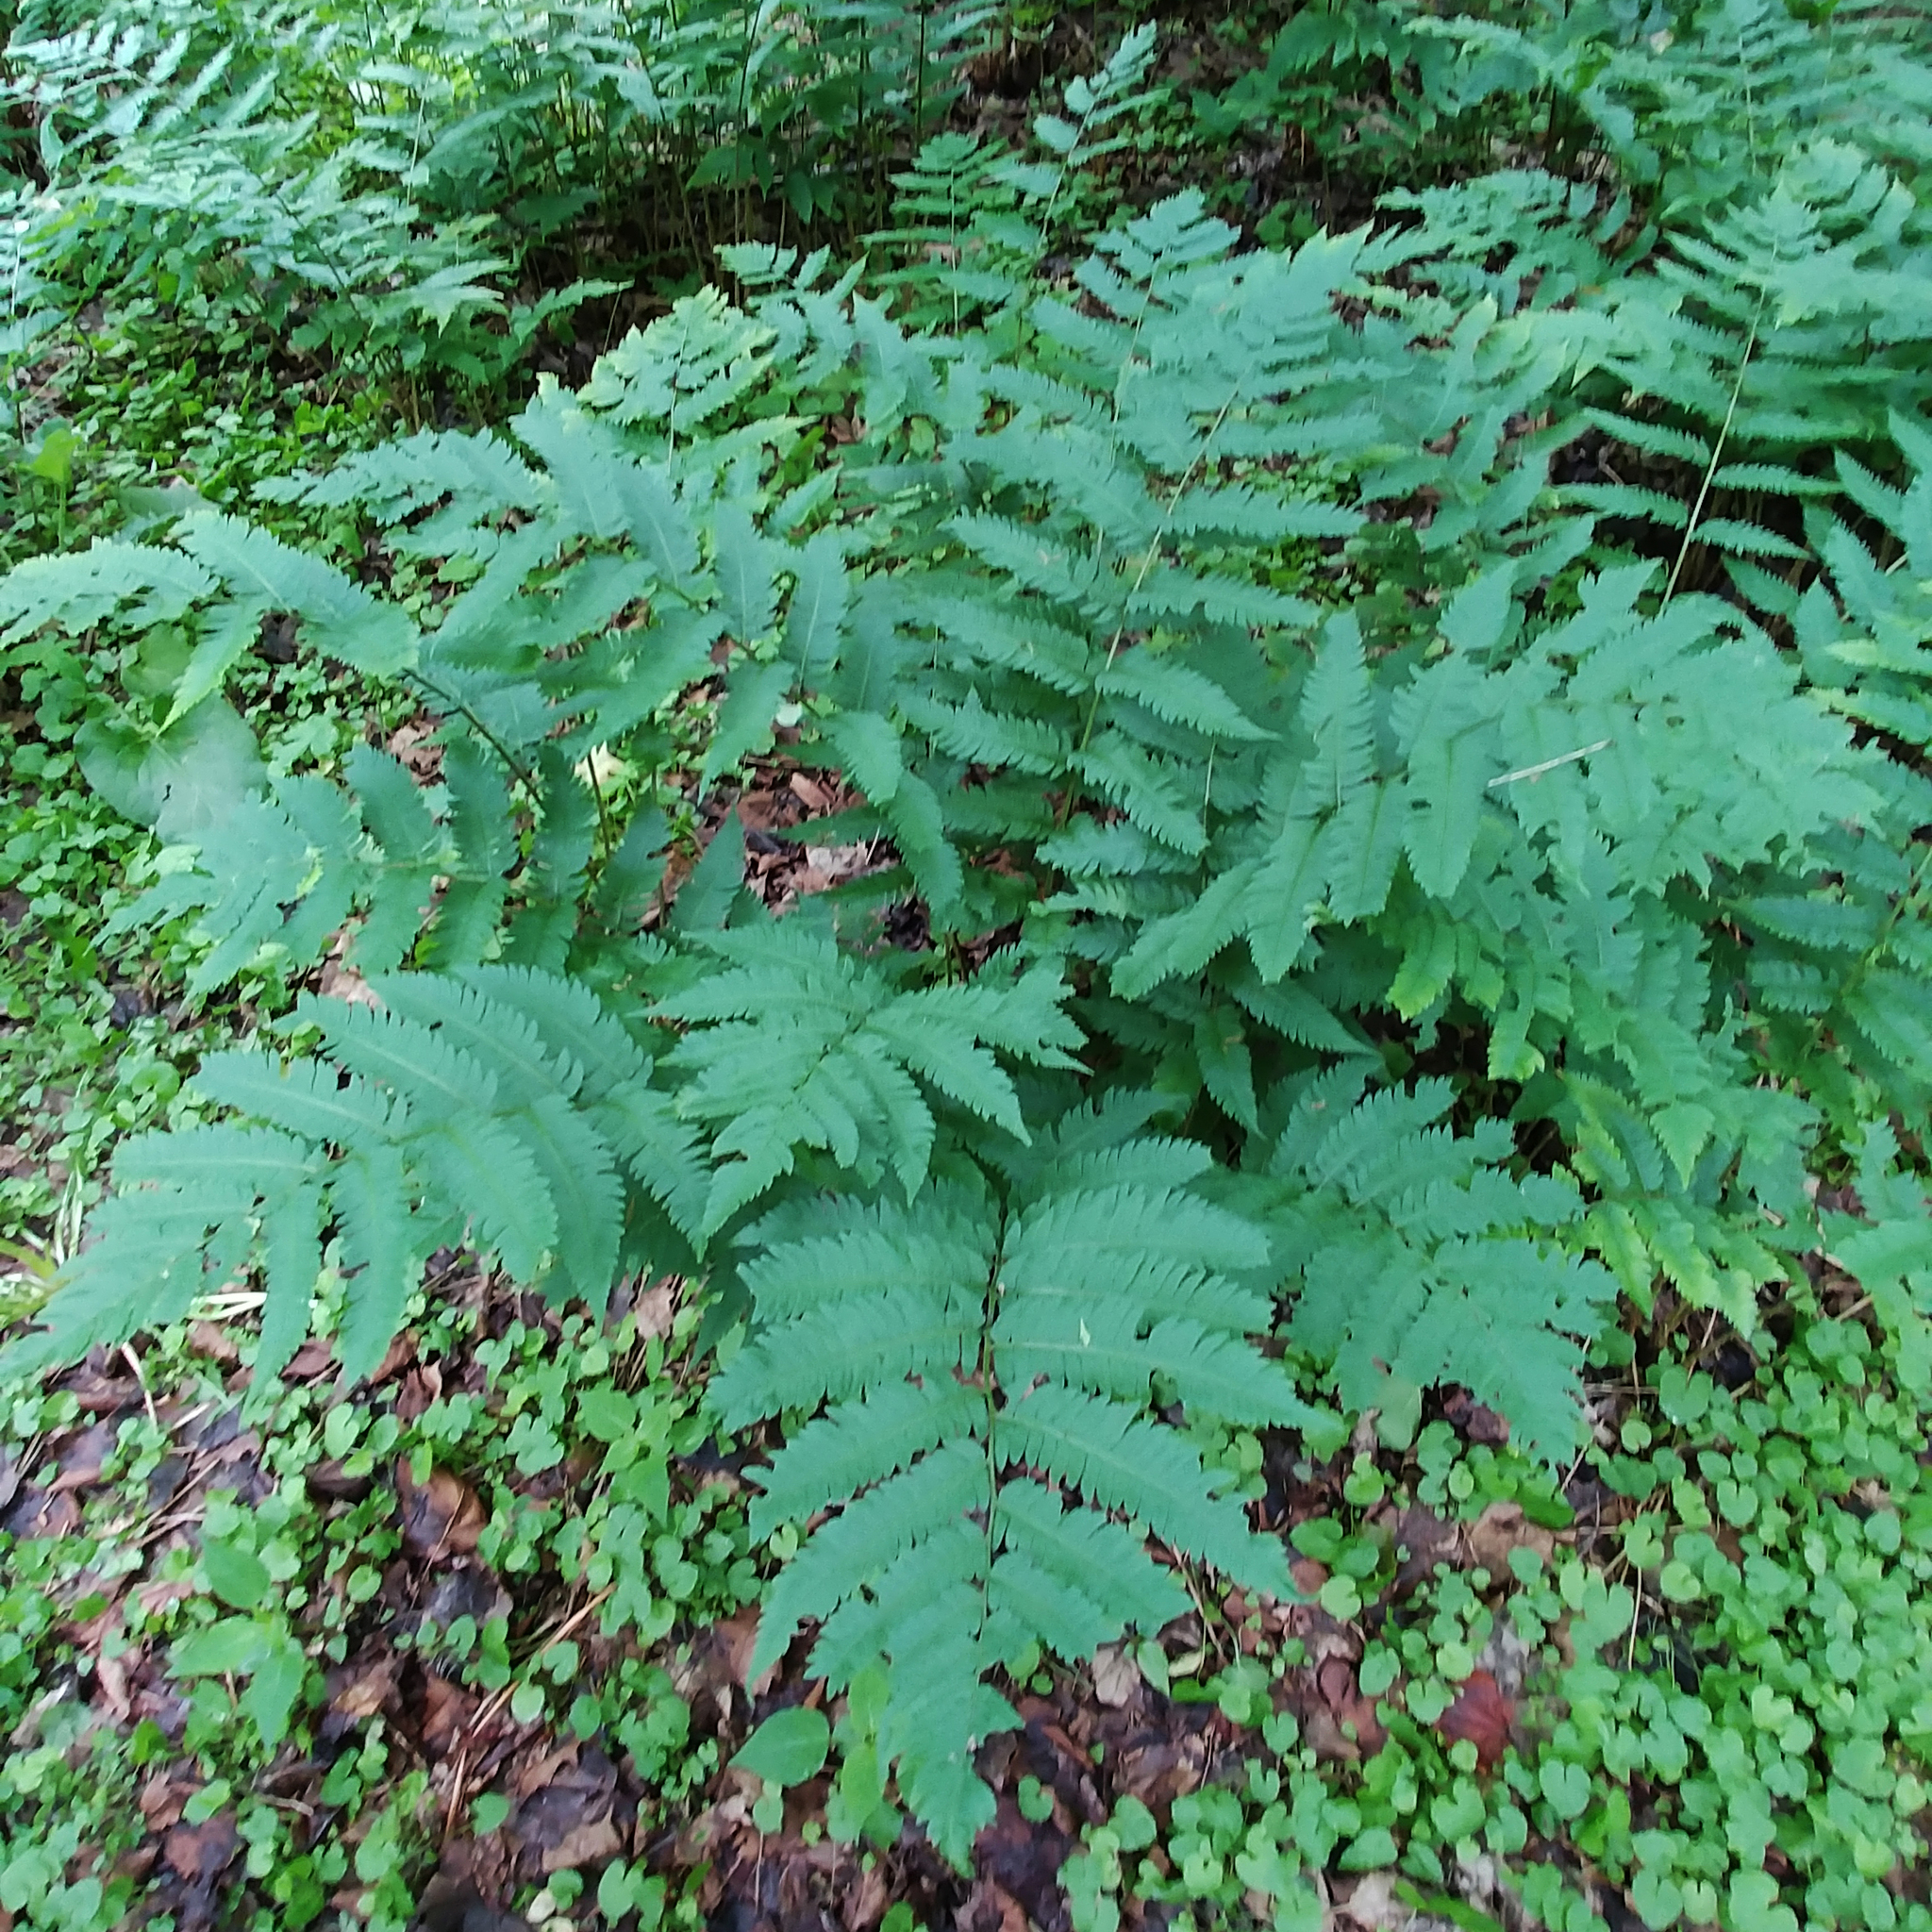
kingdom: Plantae
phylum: Tracheophyta
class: Polypodiopsida
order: Polypodiales
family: Dryopteridaceae
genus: Dryopteris
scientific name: Dryopteris goldieana
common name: Goldie's fern
